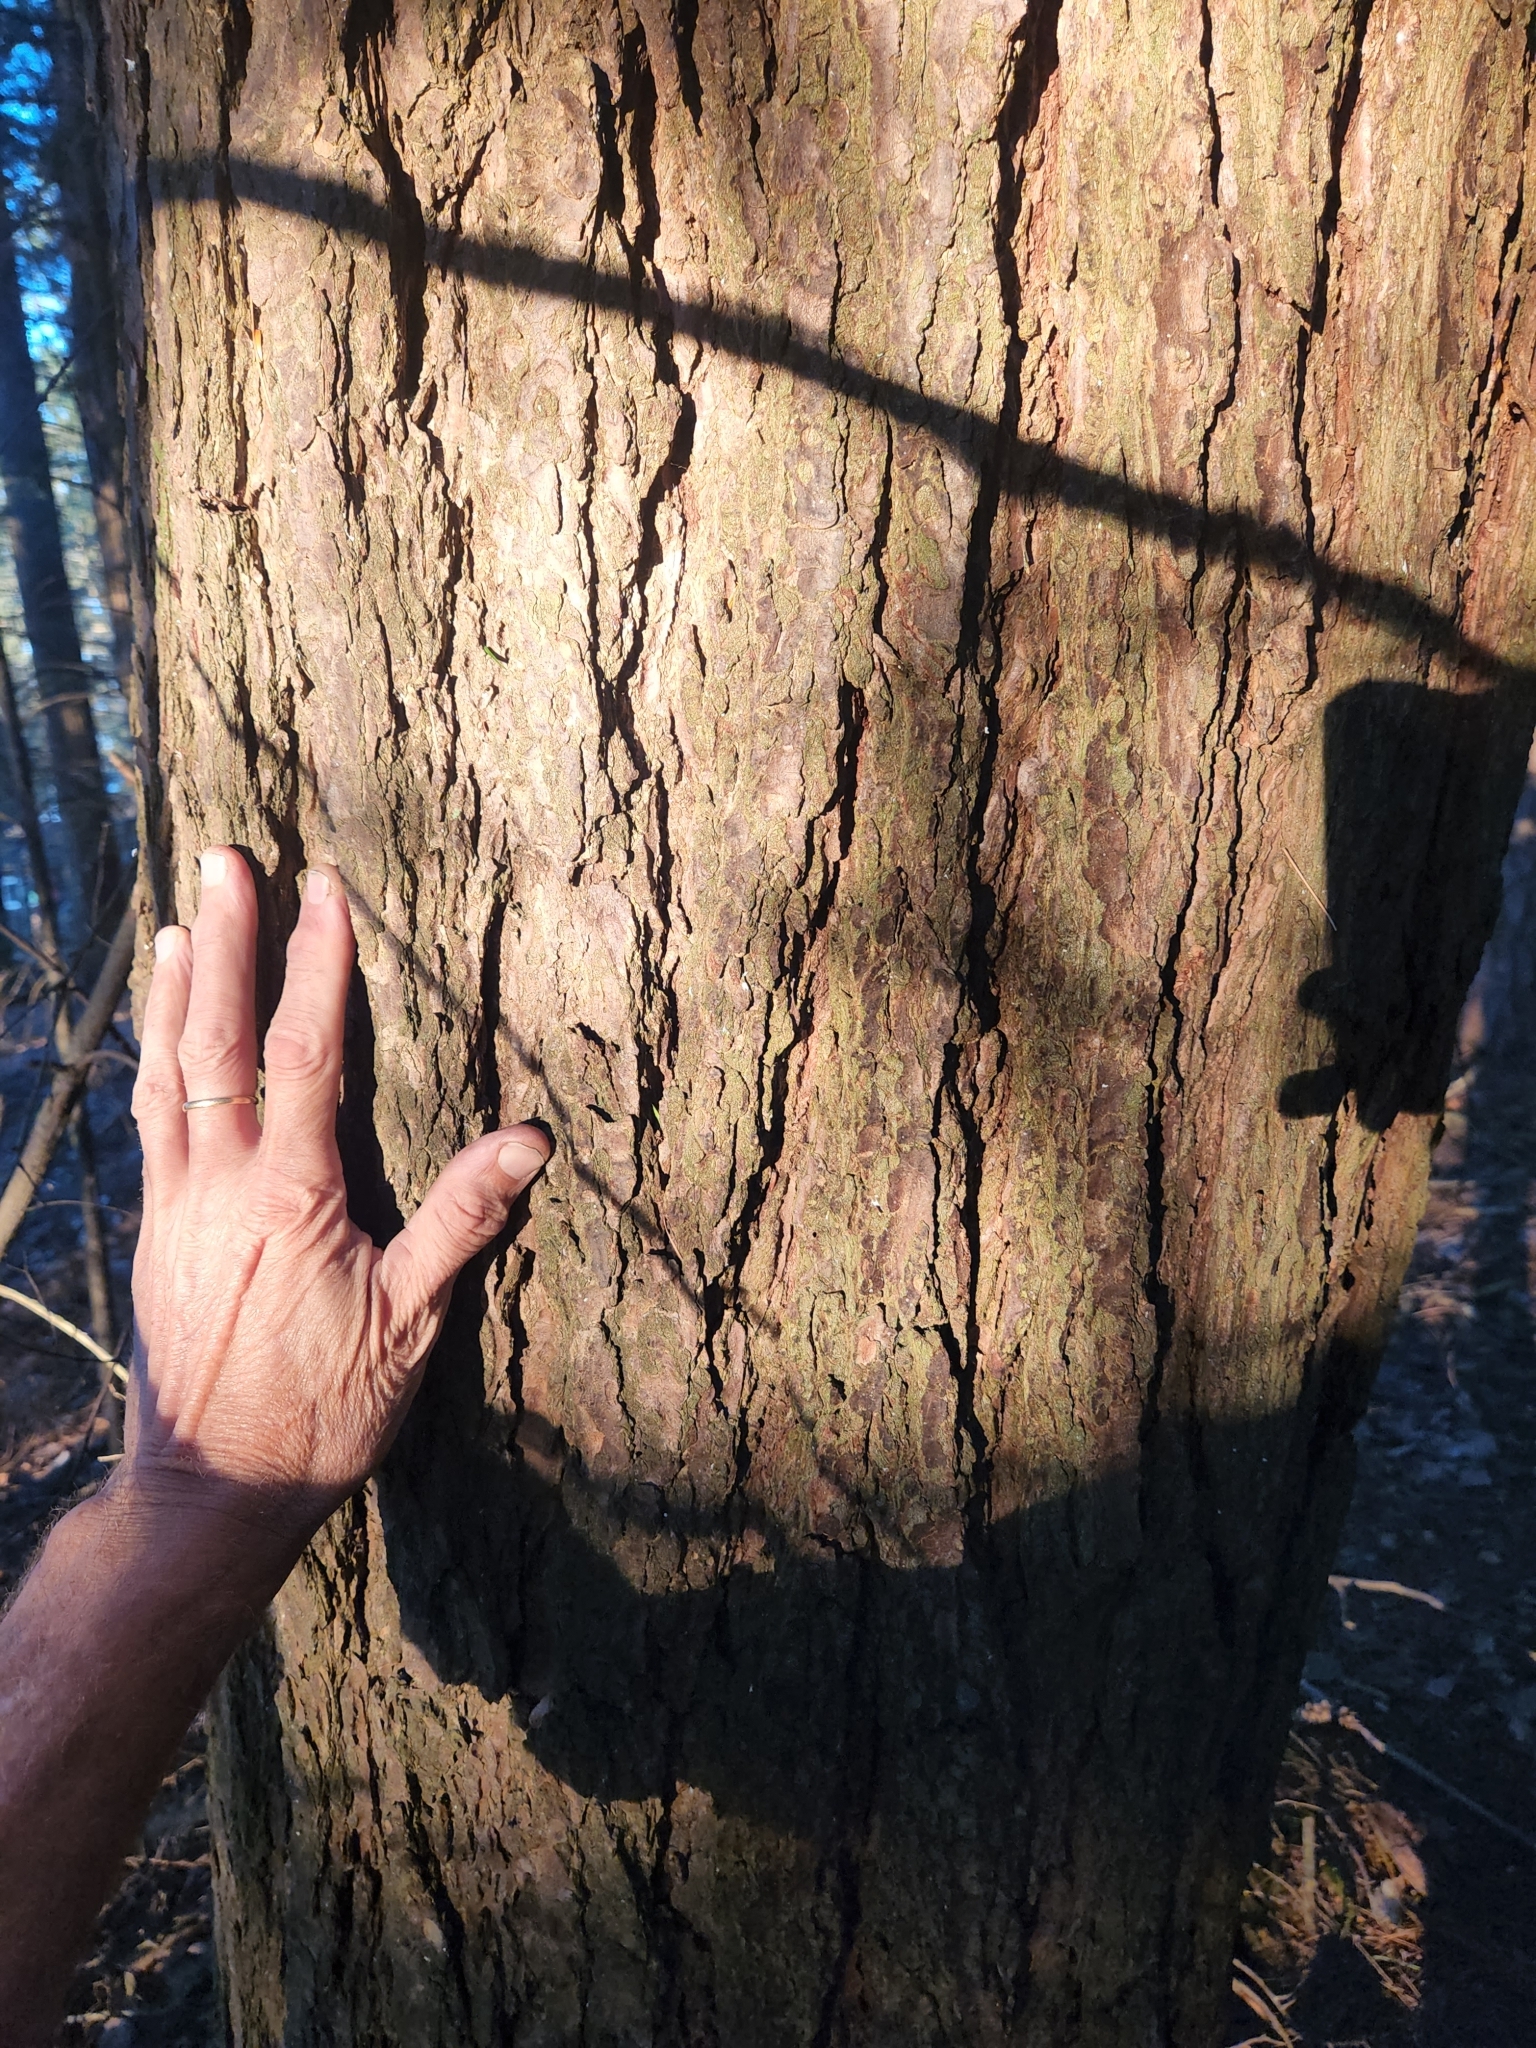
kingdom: Plantae
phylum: Tracheophyta
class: Pinopsida
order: Pinales
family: Pinaceae
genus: Tsuga
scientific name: Tsuga canadensis
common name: Eastern hemlock
